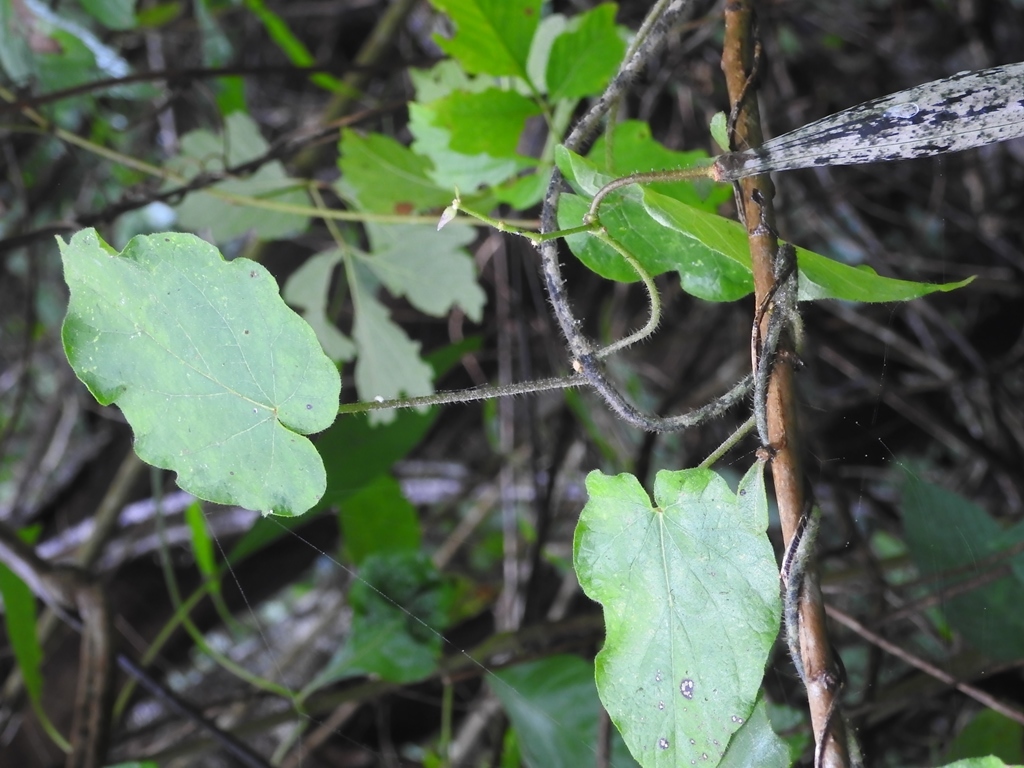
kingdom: Plantae
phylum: Tracheophyta
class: Magnoliopsida
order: Gentianales
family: Apocynaceae
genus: Matelea
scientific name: Matelea velutinoides
